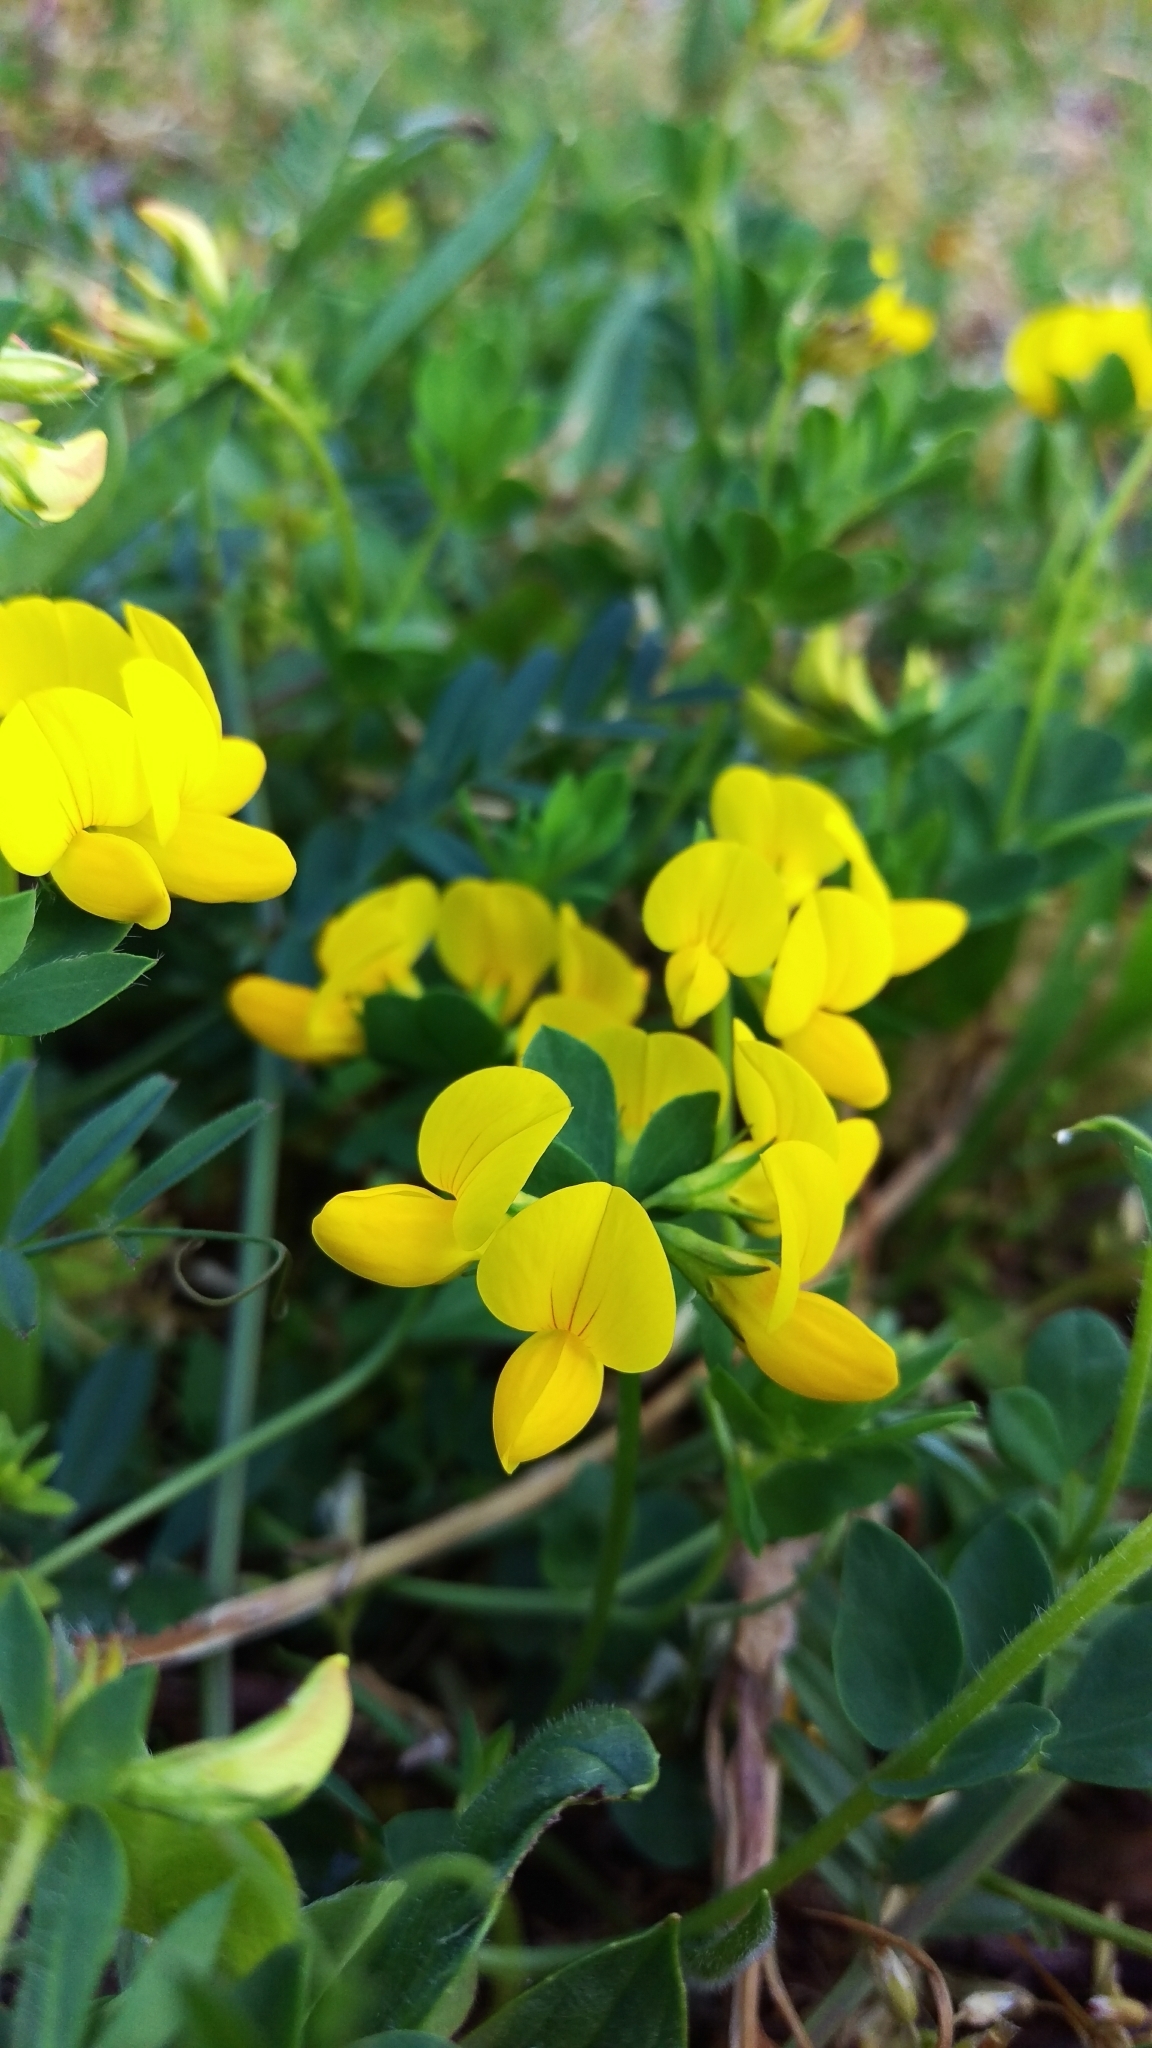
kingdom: Plantae
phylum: Tracheophyta
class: Magnoliopsida
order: Fabales
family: Fabaceae
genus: Lotus
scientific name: Lotus corniculatus
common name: Common bird's-foot-trefoil
